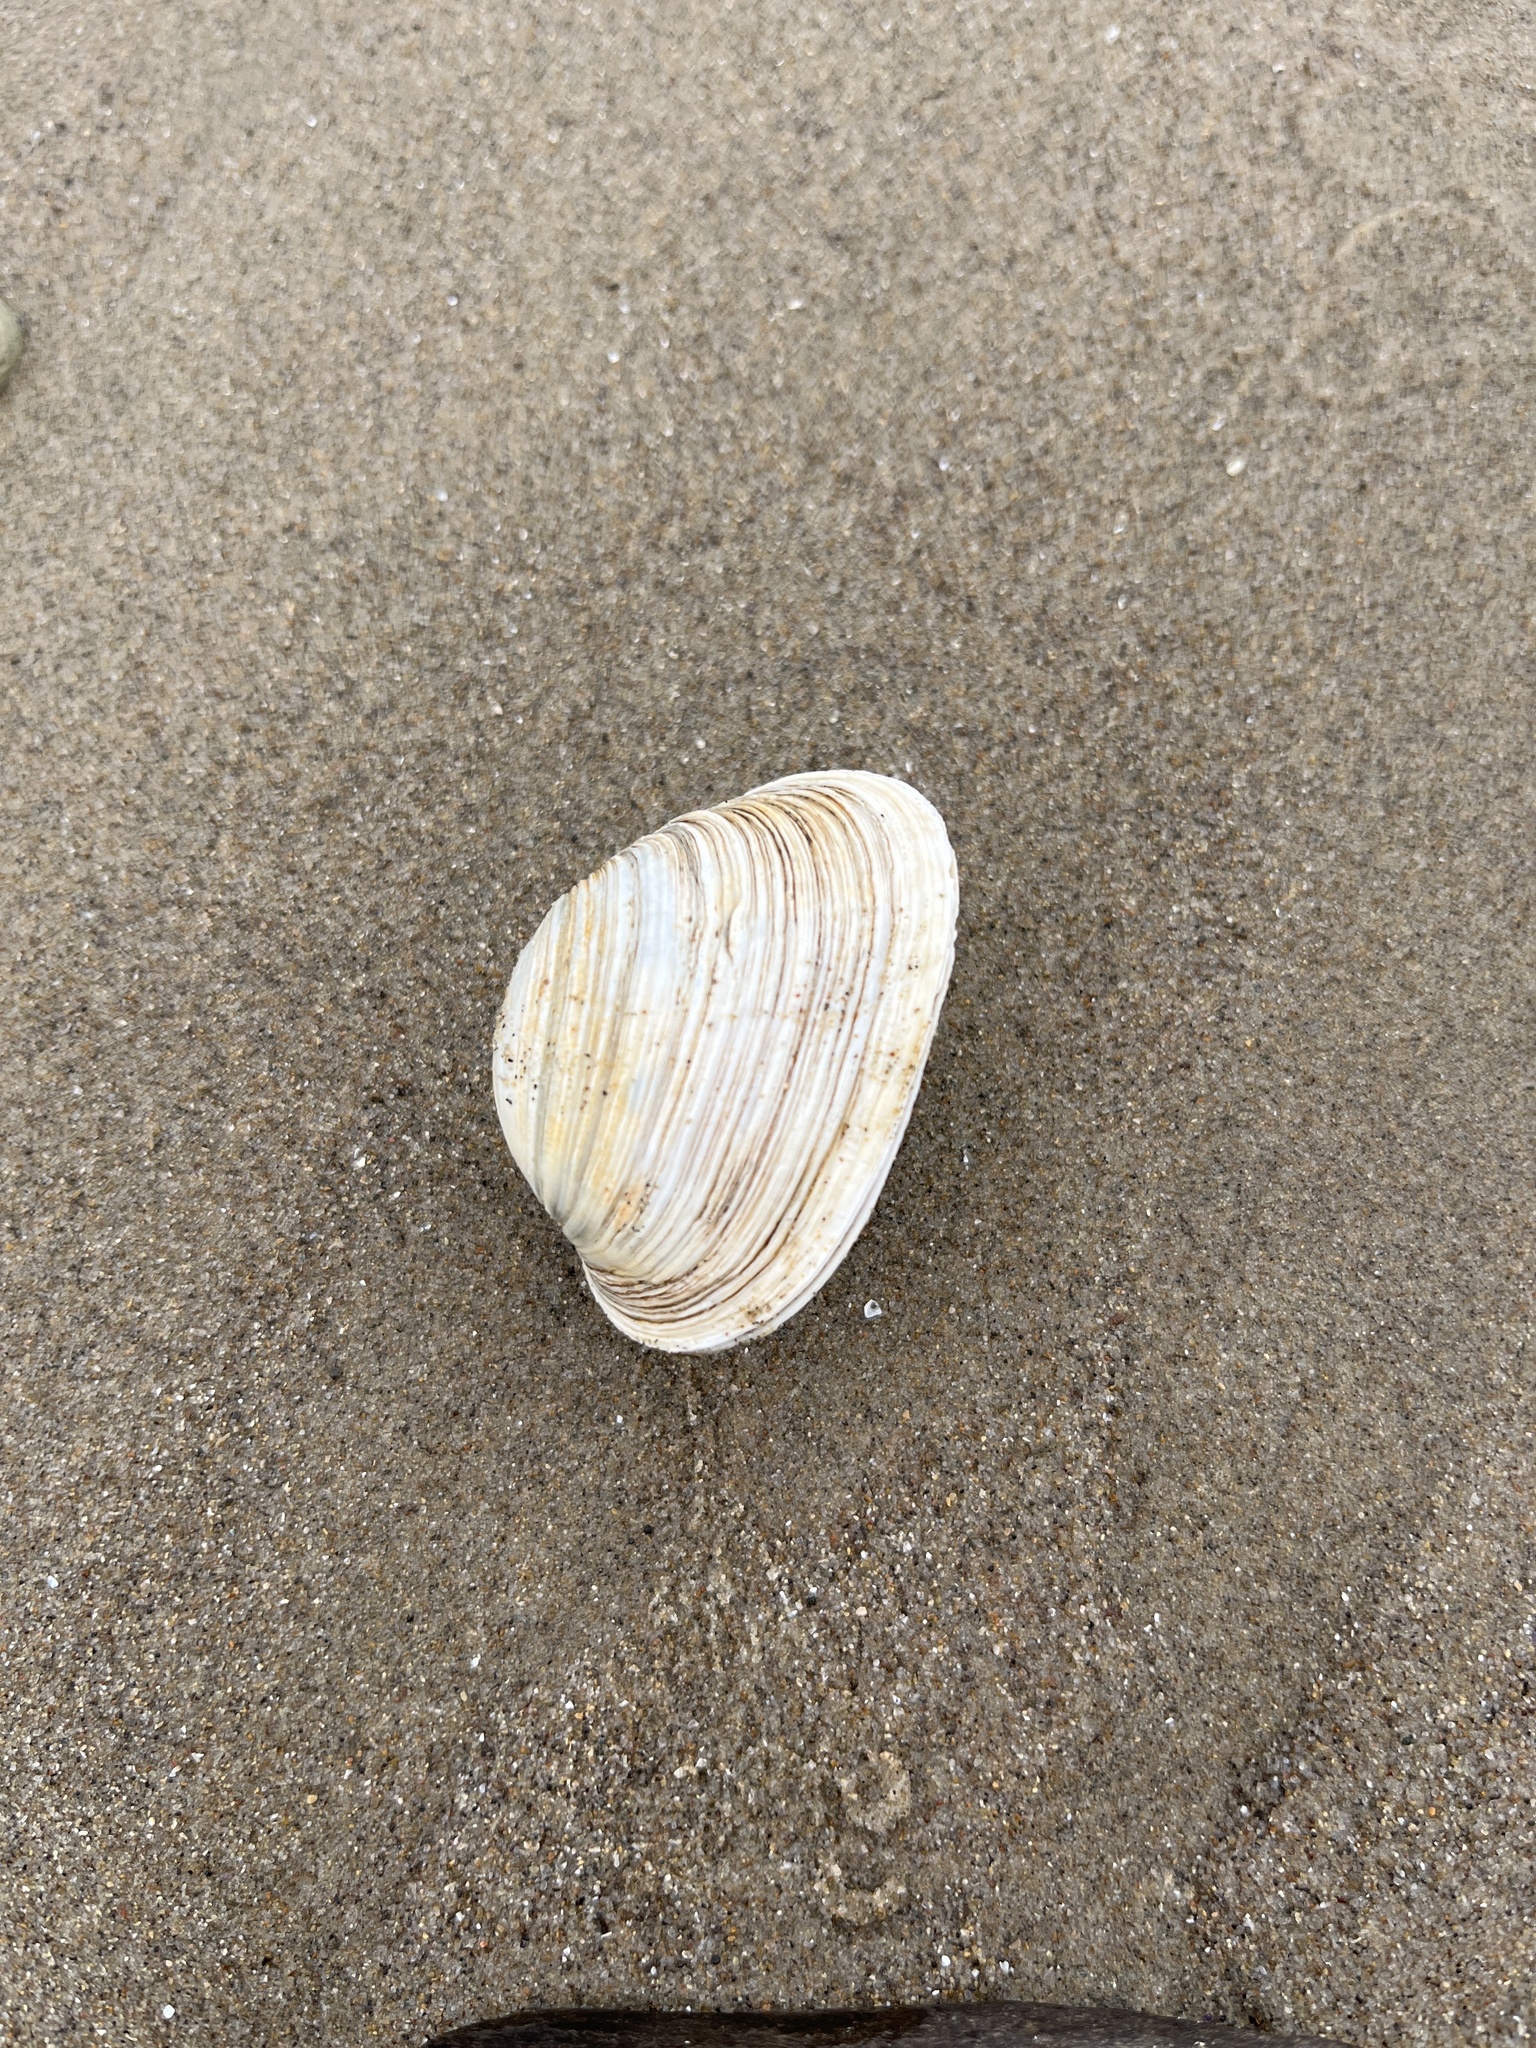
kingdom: Animalia
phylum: Mollusca
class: Bivalvia
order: Venerida
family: Veneridae
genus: Saxidomus
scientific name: Saxidomus nuttalli
